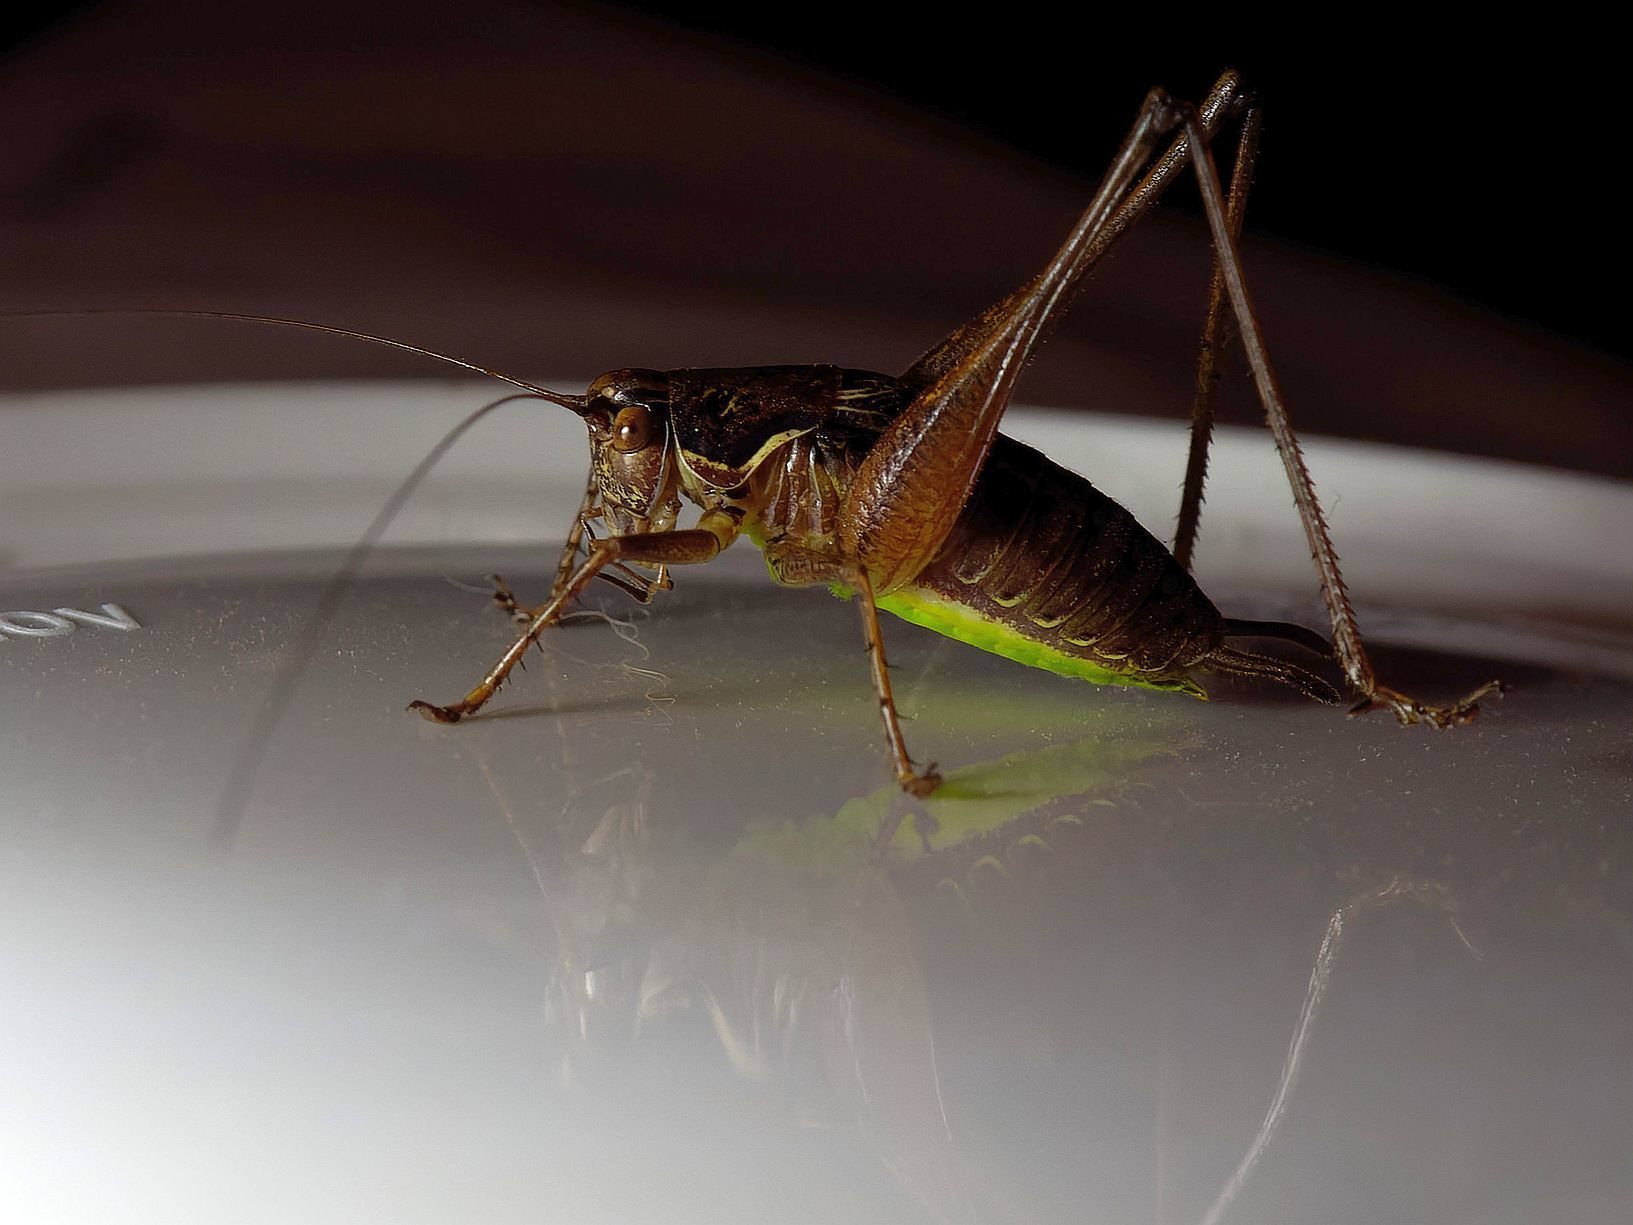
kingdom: Animalia
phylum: Arthropoda
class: Insecta
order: Orthoptera
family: Tettigoniidae
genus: Pachytrachis
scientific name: Pachytrachis gracilis
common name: Graceful bush-cricket
